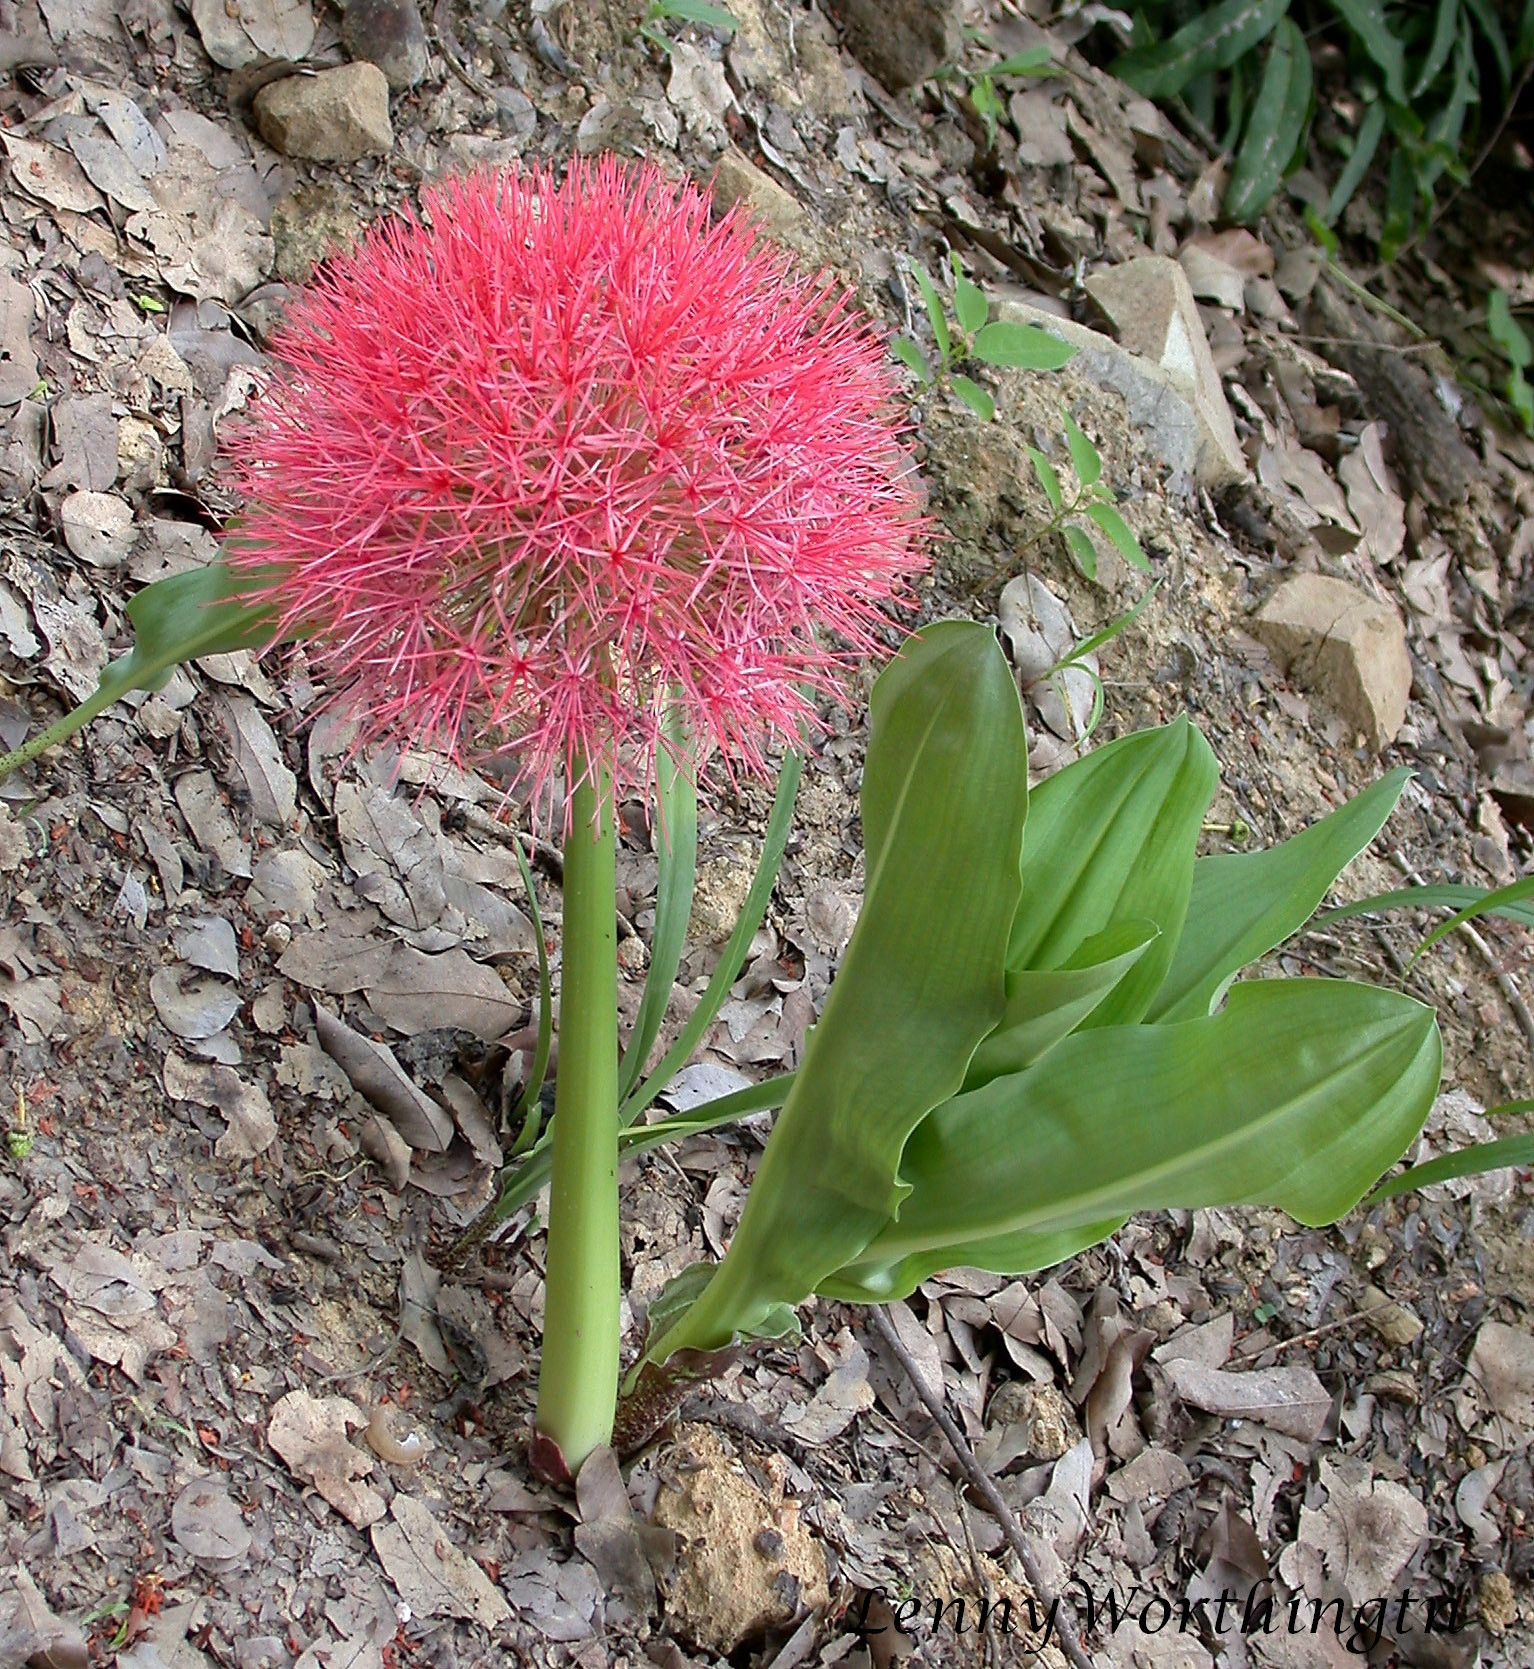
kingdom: Plantae
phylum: Tracheophyta
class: Liliopsida
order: Asparagales
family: Amaryllidaceae
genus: Scadoxus
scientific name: Scadoxus multiflorus
